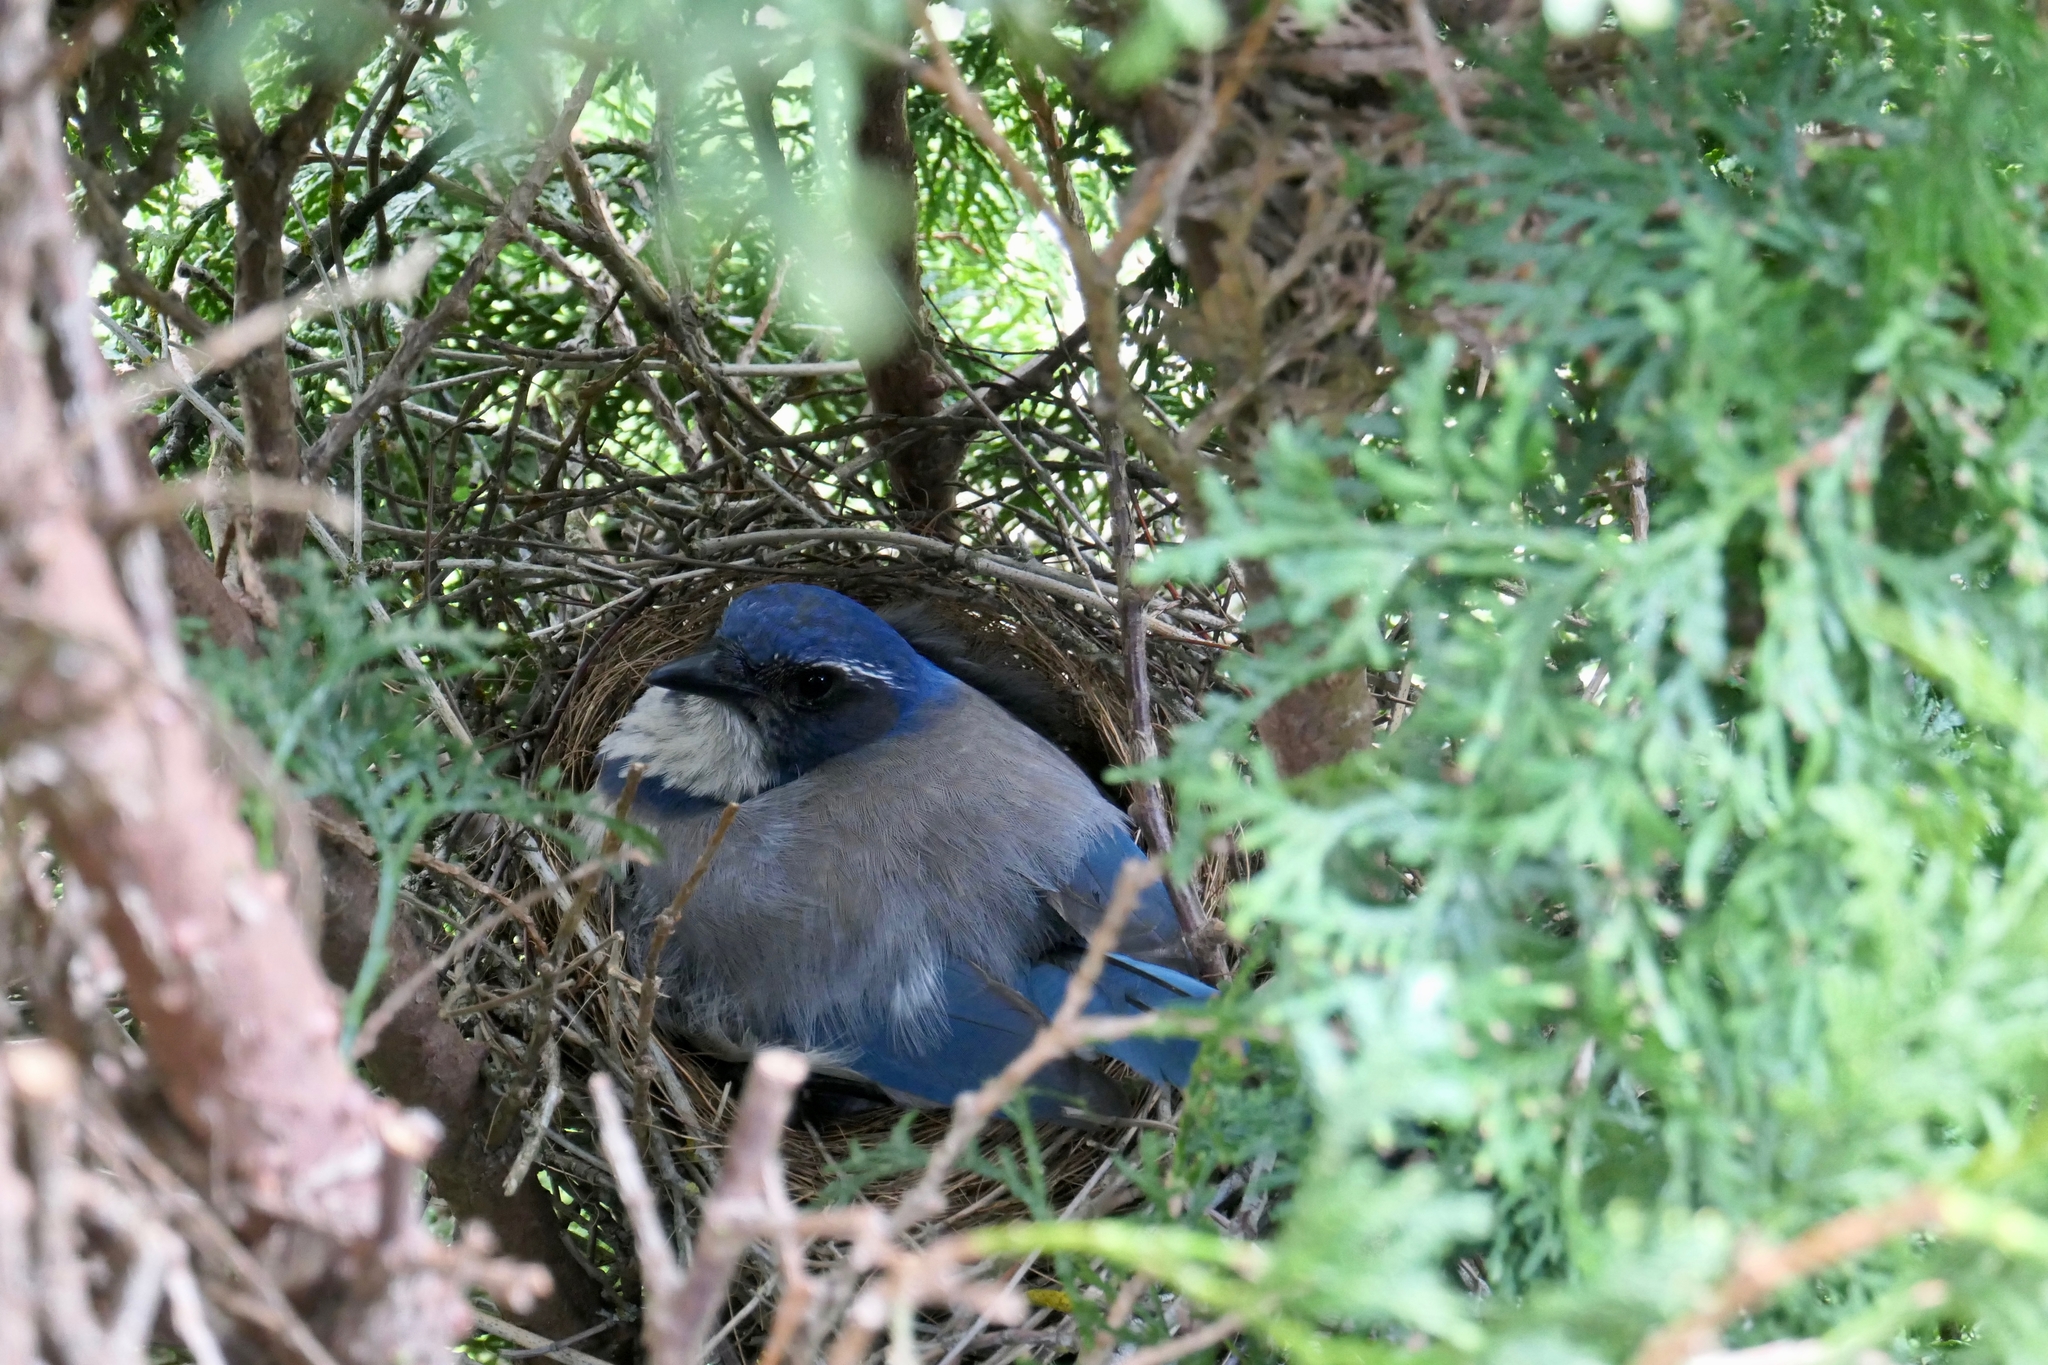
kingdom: Animalia
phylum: Chordata
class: Aves
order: Passeriformes
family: Corvidae
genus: Aphelocoma
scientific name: Aphelocoma californica
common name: California scrub-jay
